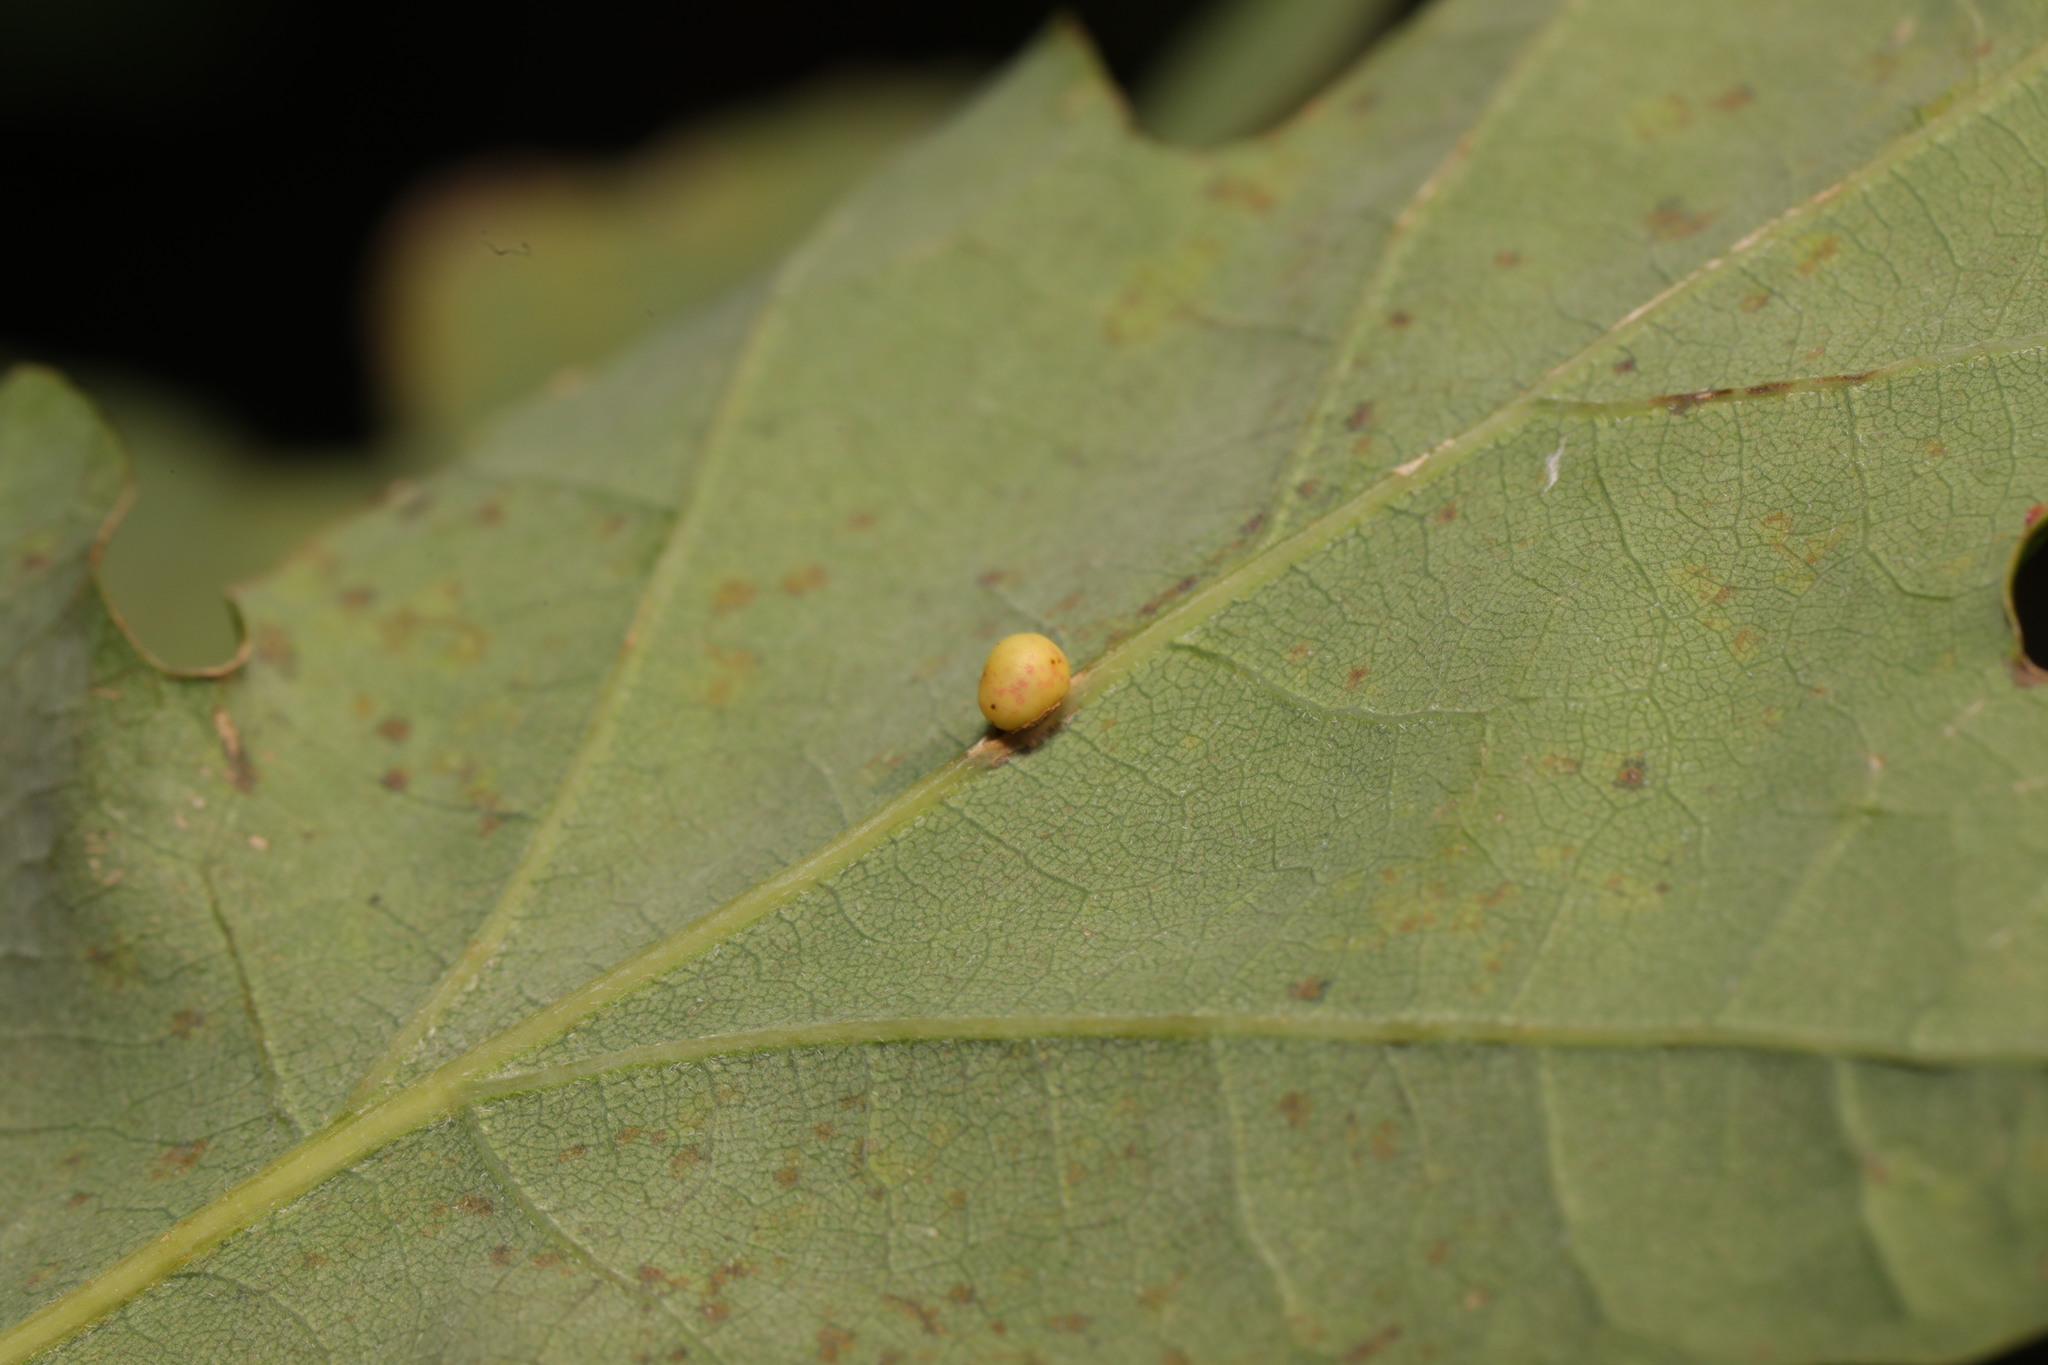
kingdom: Animalia
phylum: Arthropoda
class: Insecta
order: Hymenoptera
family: Cynipidae
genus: Neuroterus
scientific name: Neuroterus anthracinus
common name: Oyster gall
